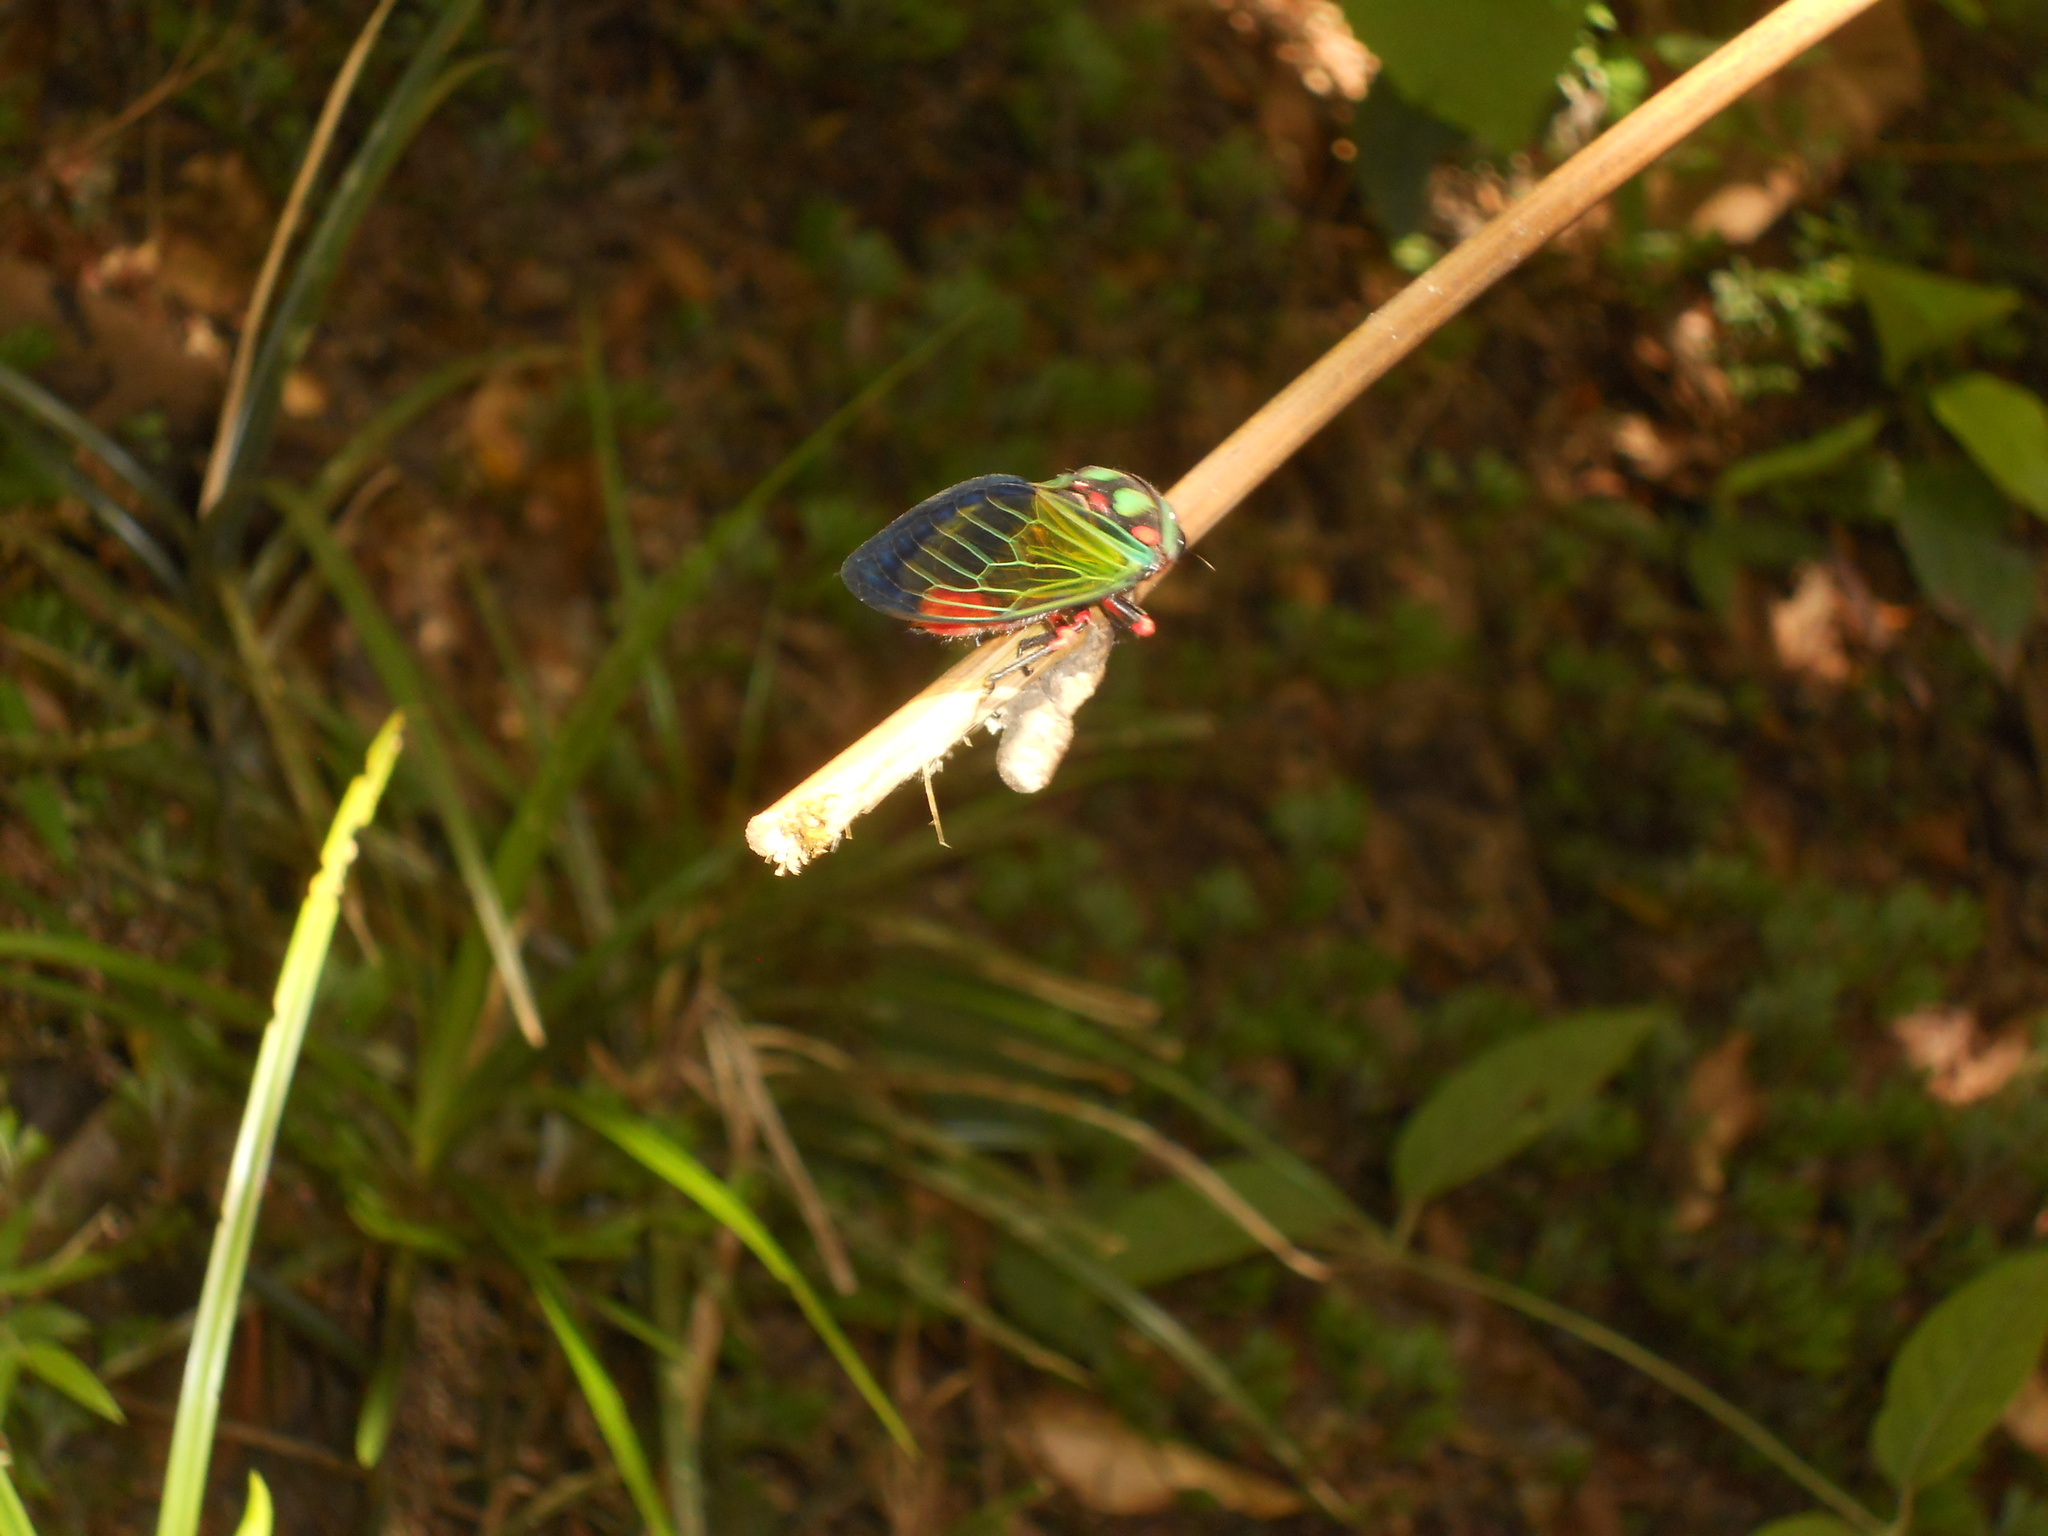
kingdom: Animalia
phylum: Arthropoda
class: Insecta
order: Hemiptera
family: Cicadidae
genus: Carineta
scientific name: Carineta diardi
